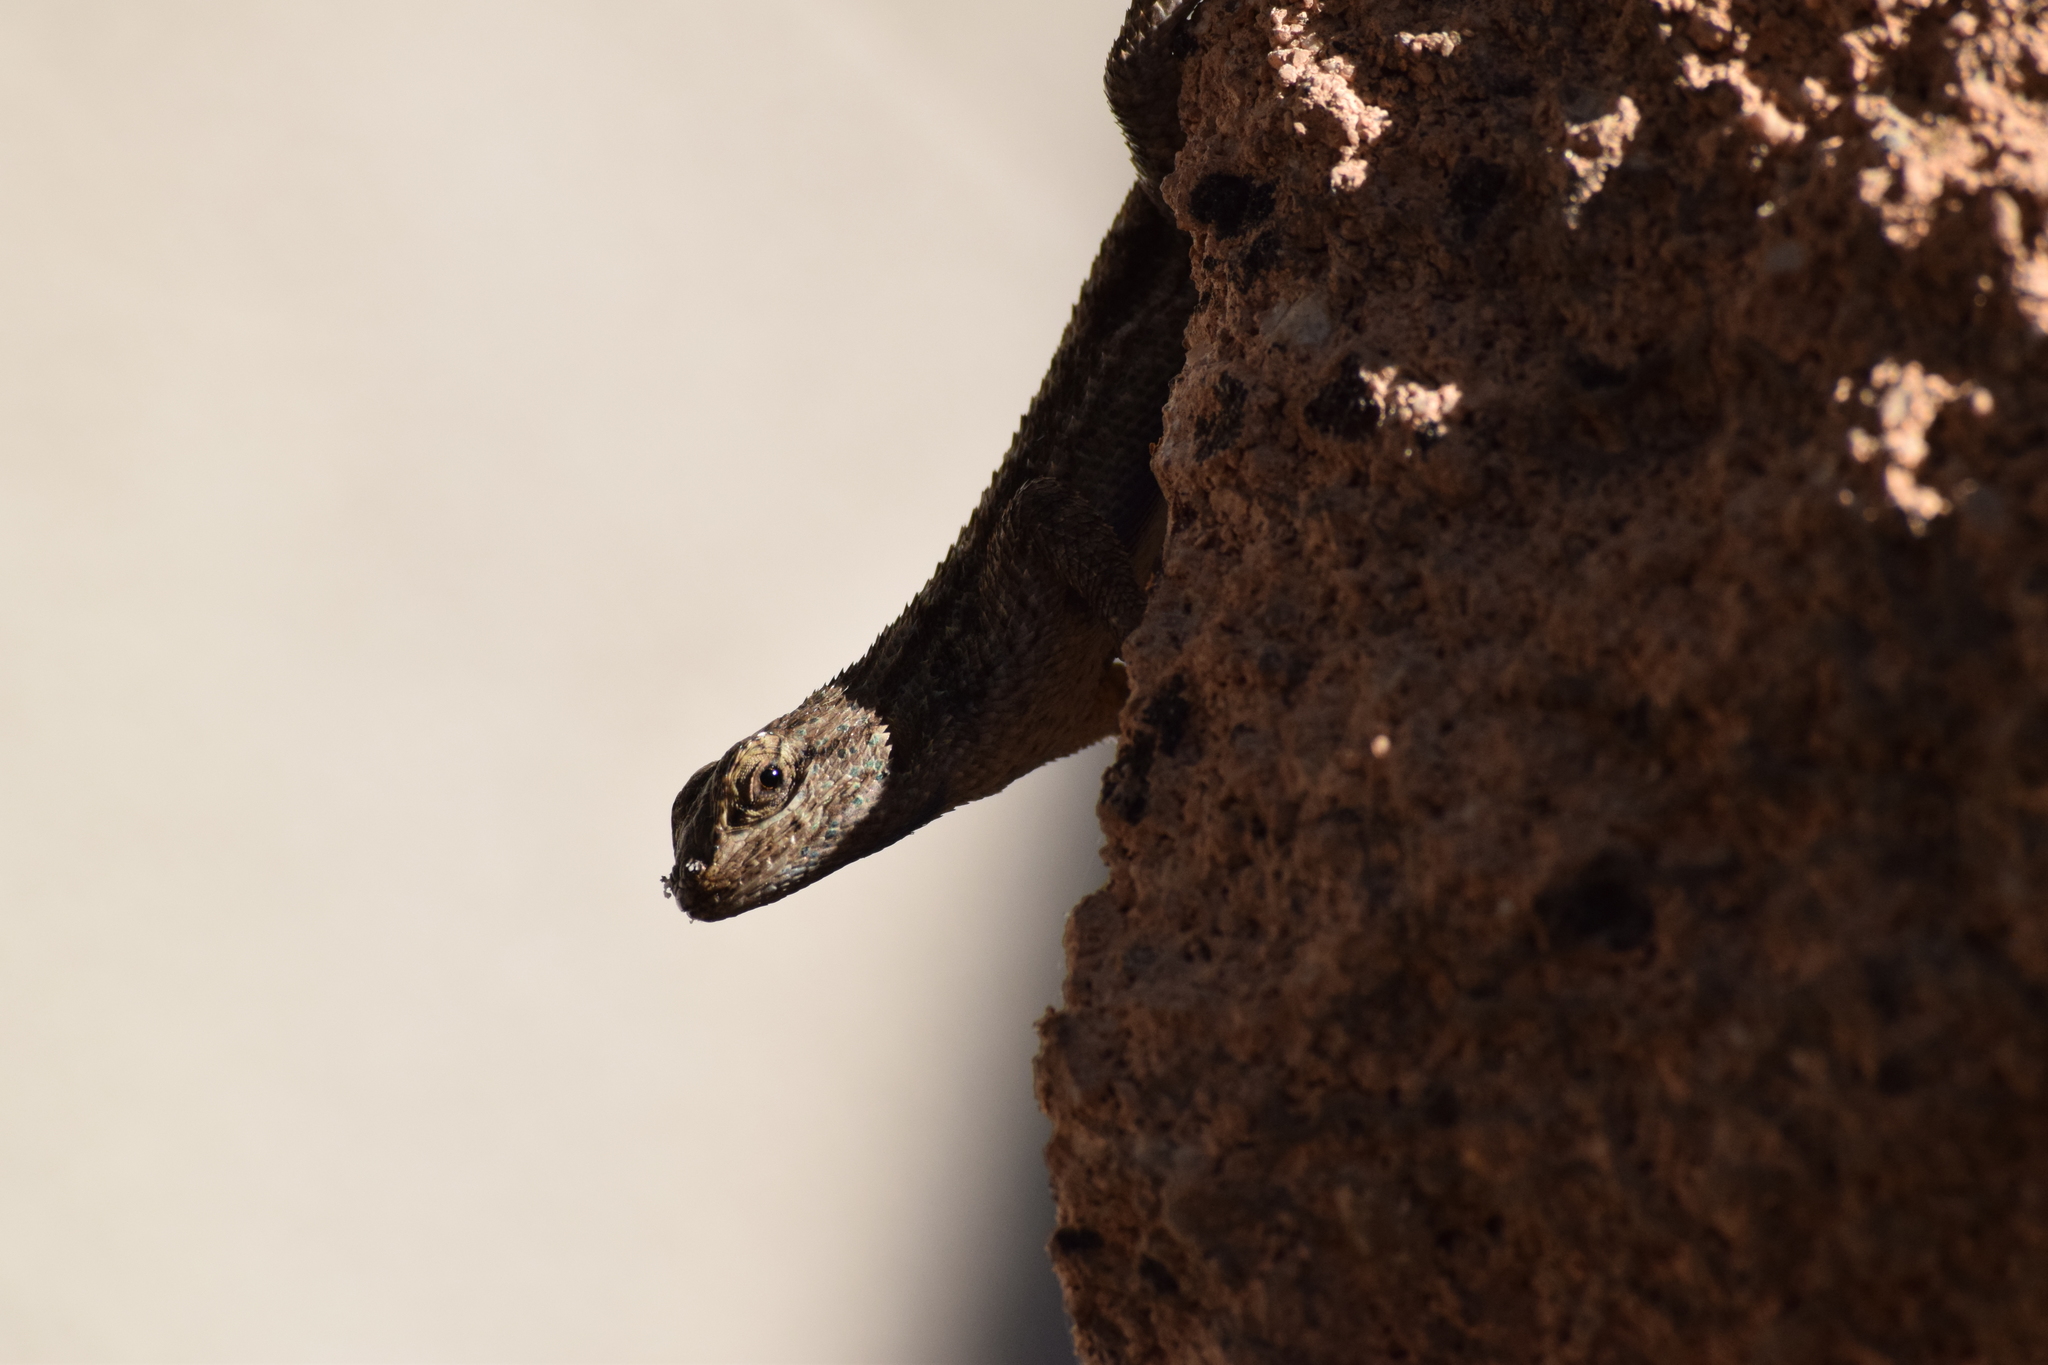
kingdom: Animalia
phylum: Chordata
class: Squamata
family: Phrynosomatidae
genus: Sceloporus
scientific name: Sceloporus occidentalis
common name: Western fence lizard
